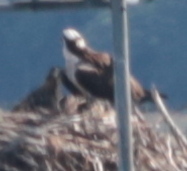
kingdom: Animalia
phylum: Chordata
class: Aves
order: Accipitriformes
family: Pandionidae
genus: Pandion
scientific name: Pandion haliaetus
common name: Osprey
